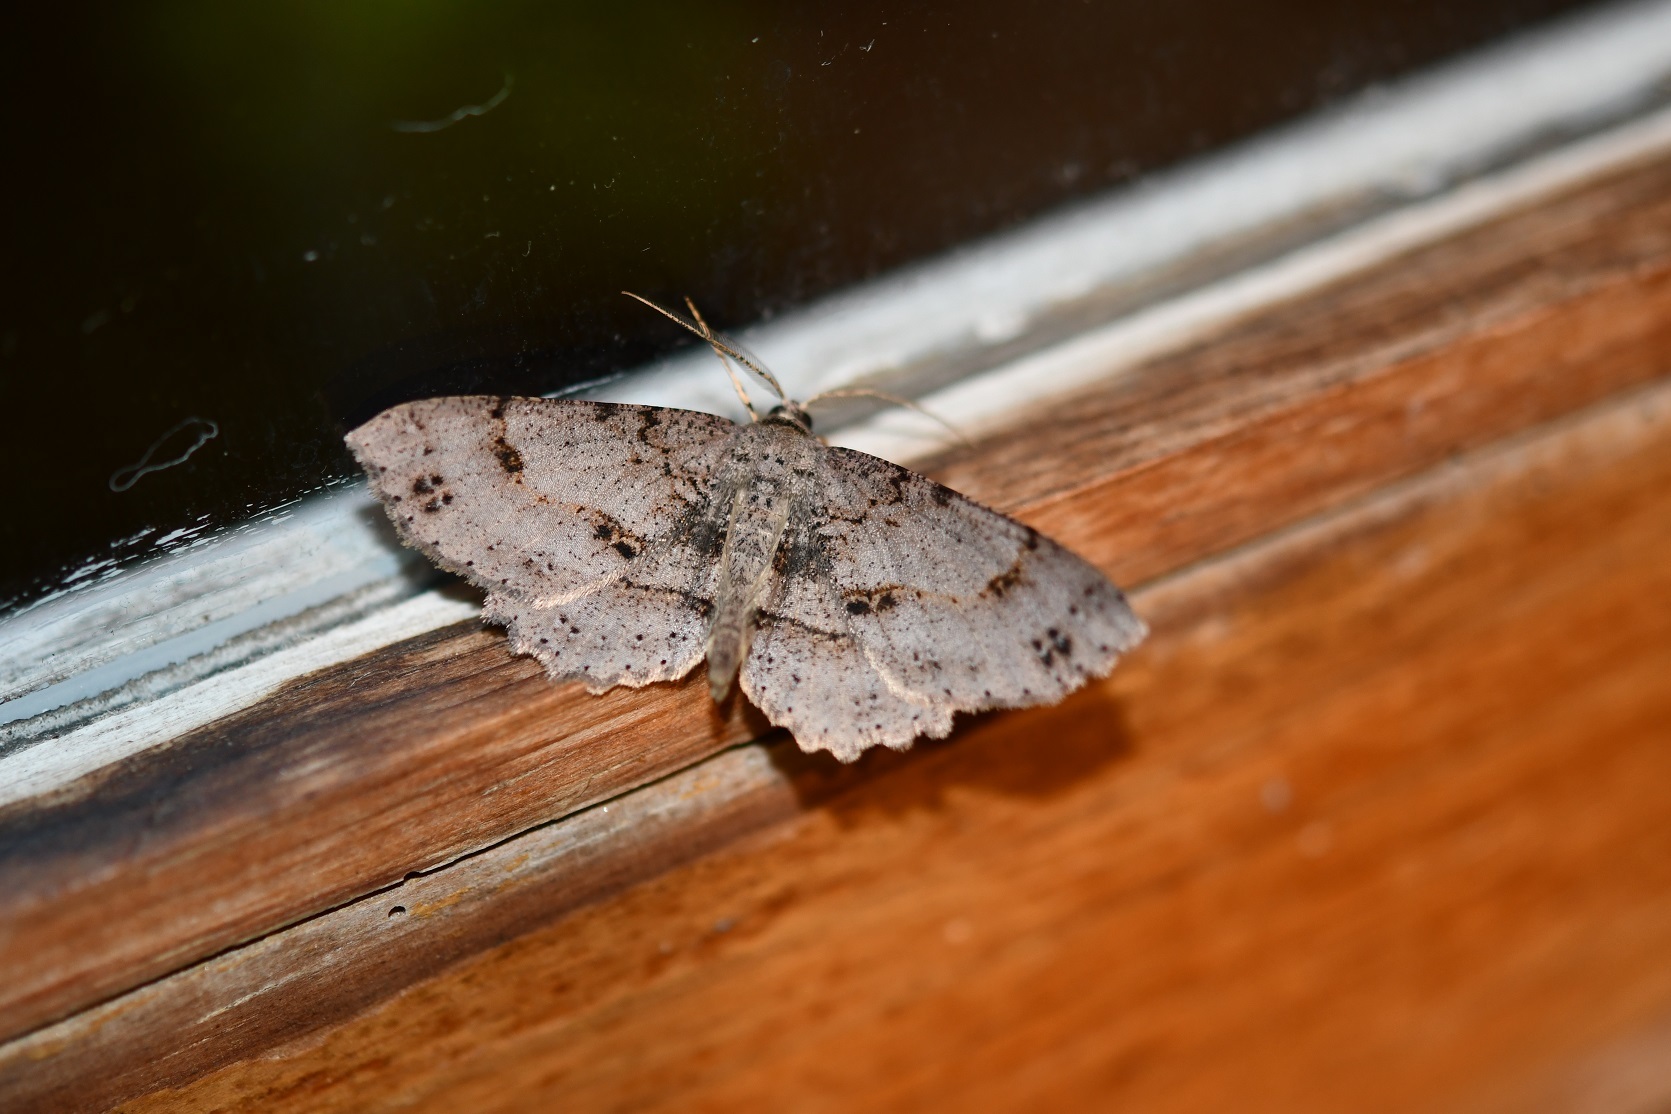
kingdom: Animalia
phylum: Arthropoda
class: Insecta
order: Lepidoptera
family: Geometridae
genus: Melanolophia
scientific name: Melanolophia signataria
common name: Signate melanolophia
